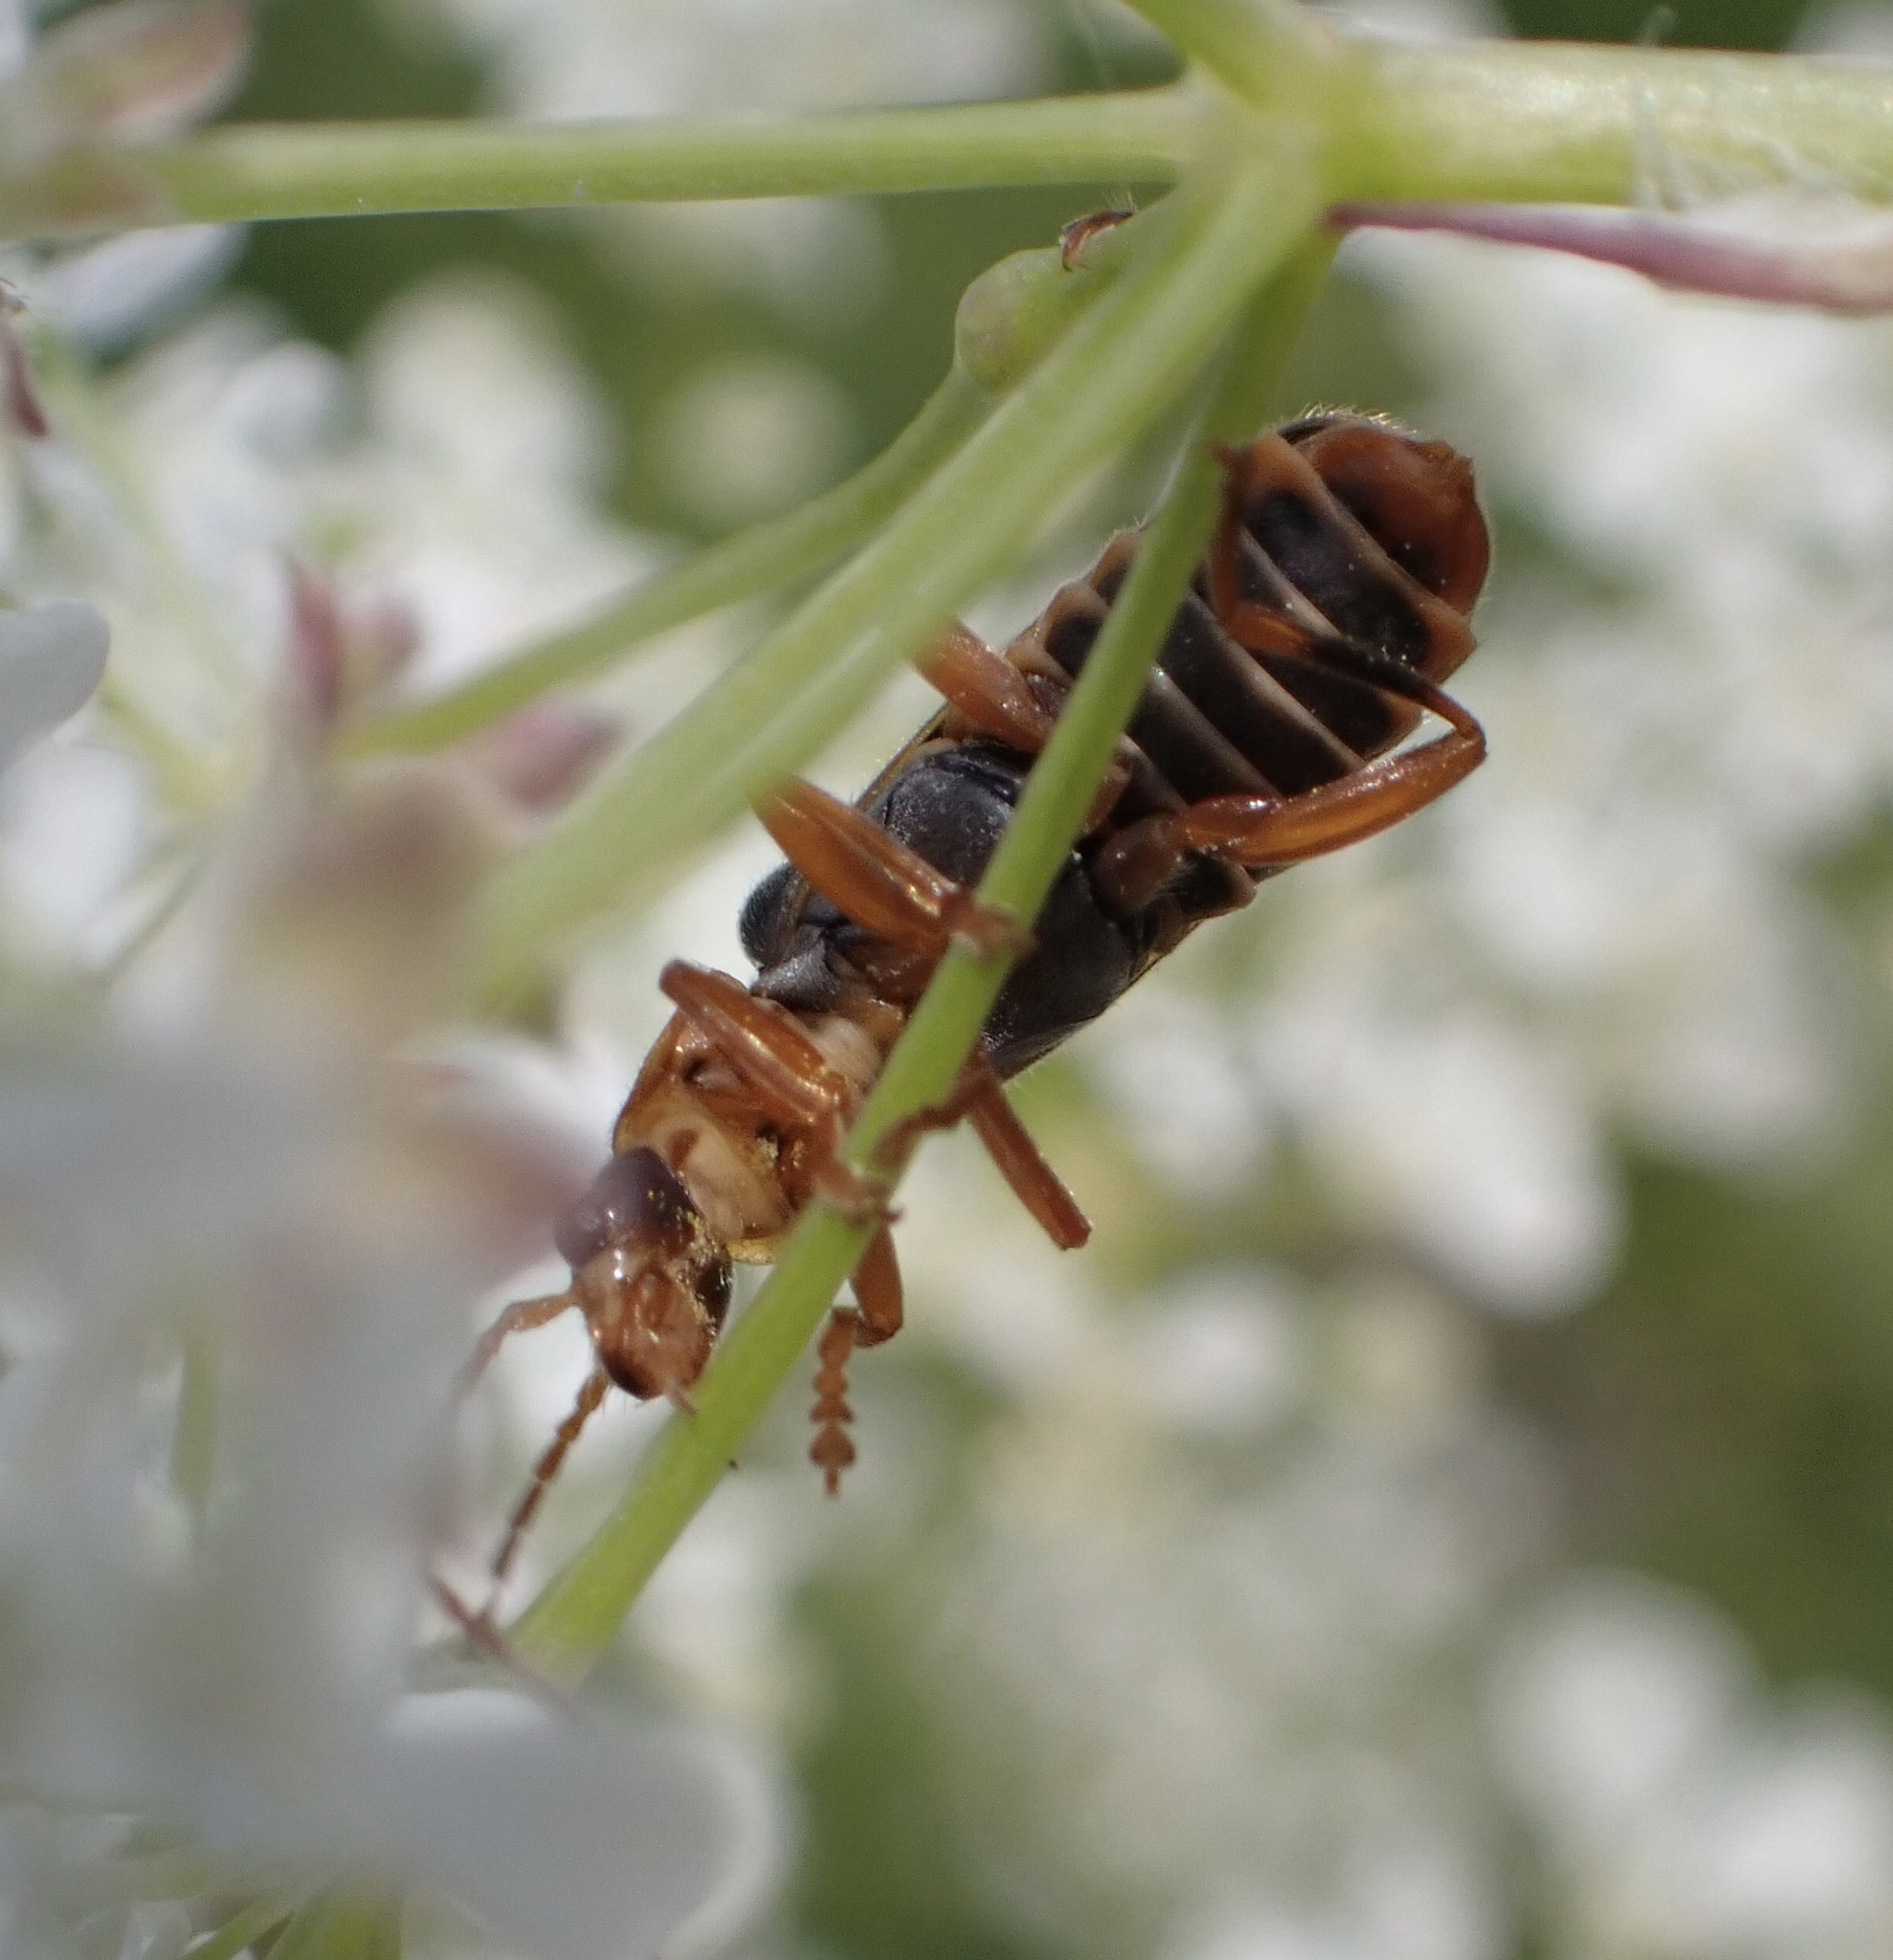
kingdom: Animalia
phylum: Arthropoda
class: Insecta
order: Coleoptera
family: Cantharidae
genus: Cantharis
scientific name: Cantharis lateralis
